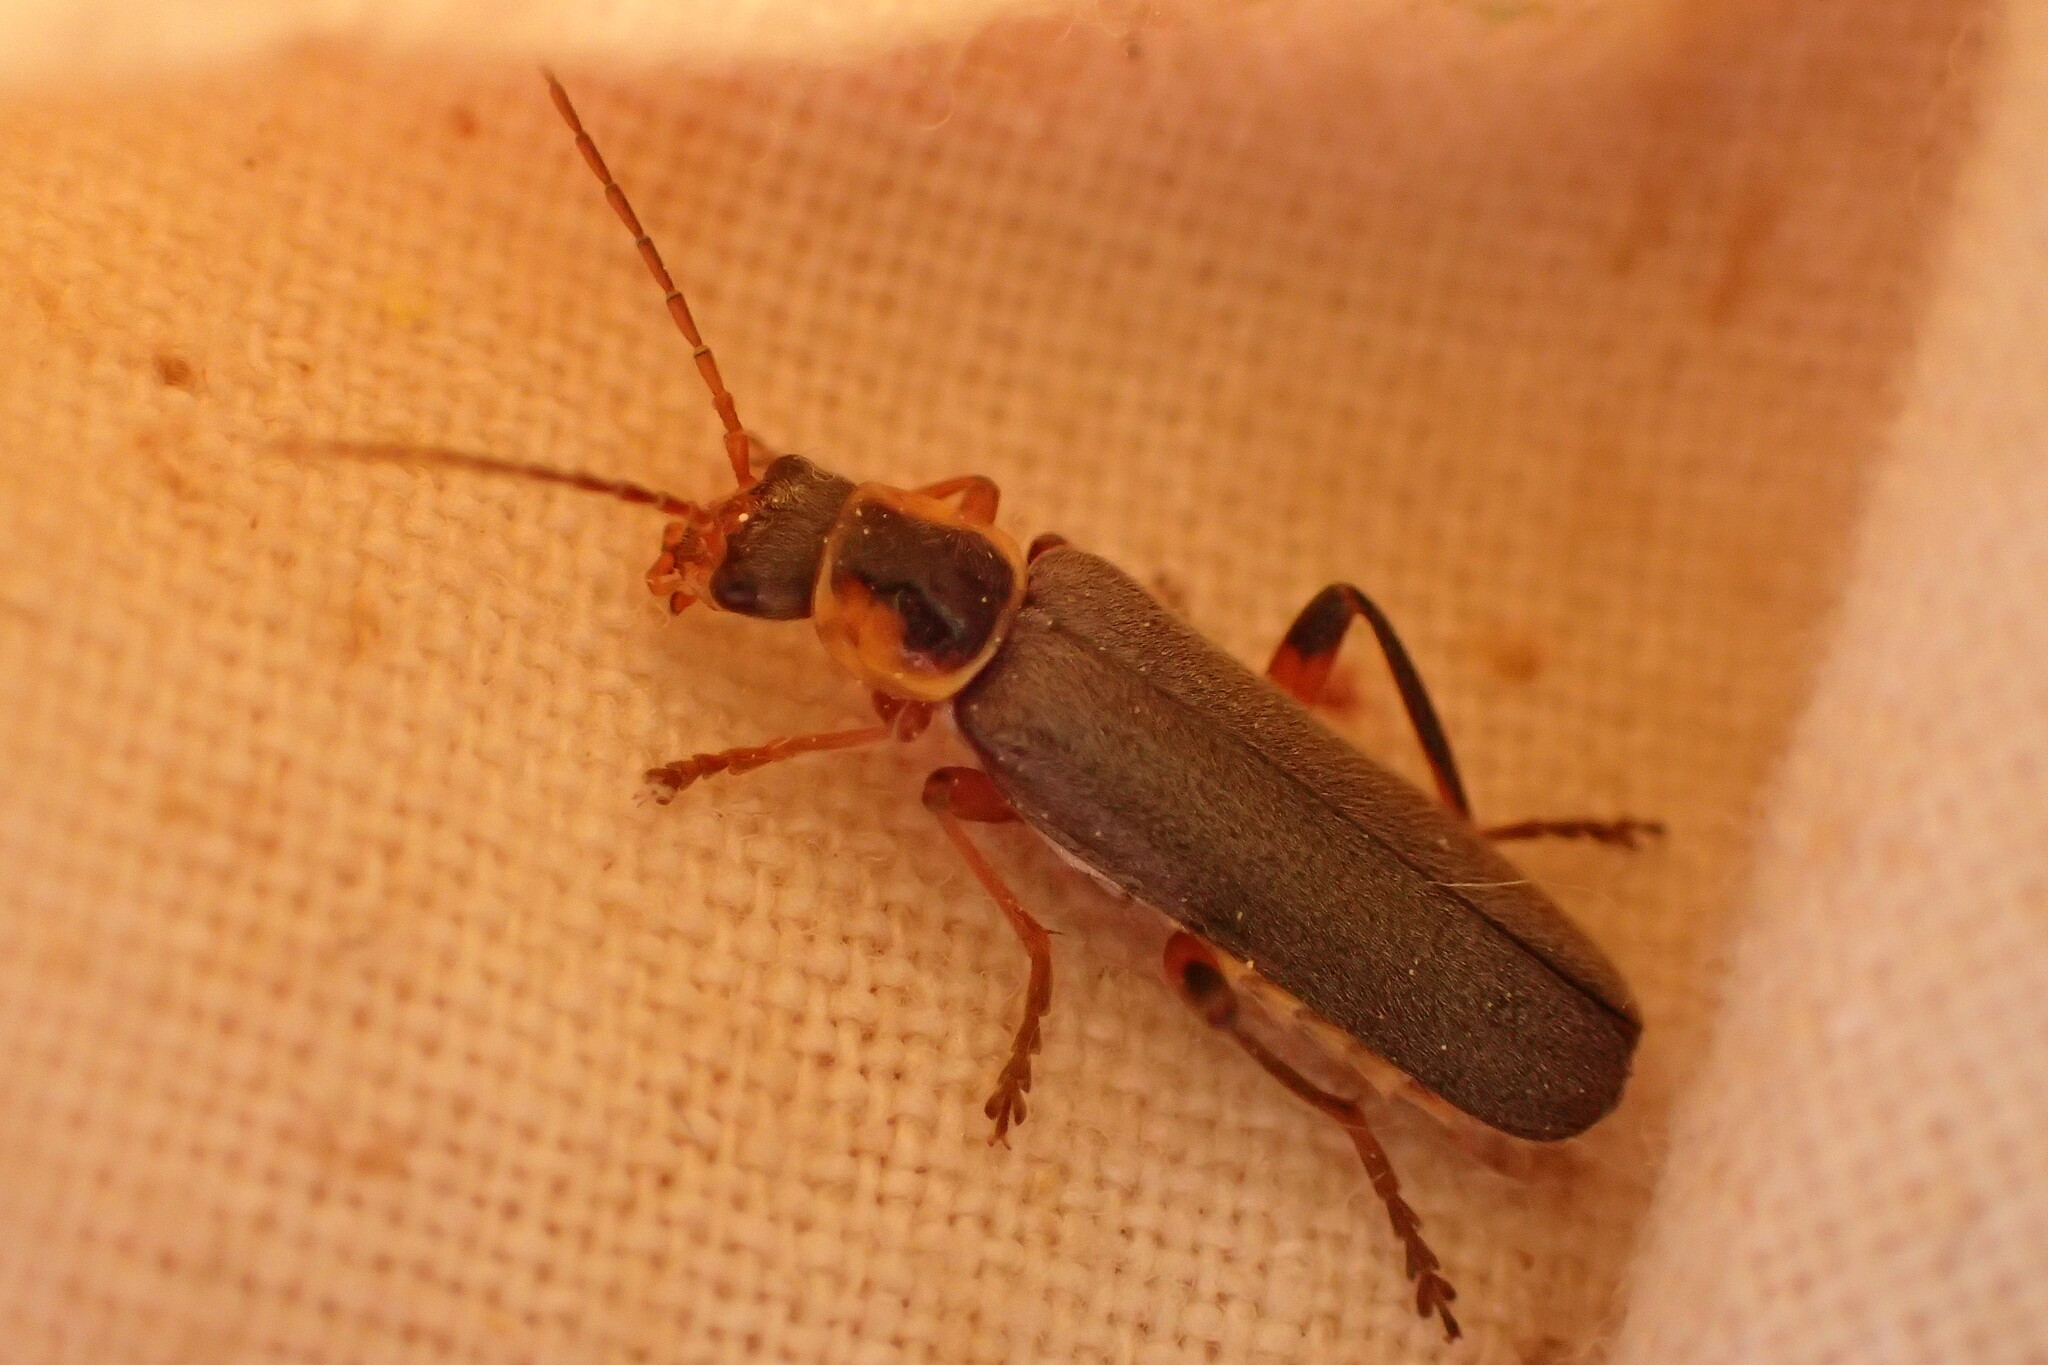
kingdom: Animalia
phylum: Arthropoda
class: Insecta
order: Coleoptera
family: Cantharidae
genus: Cantharis
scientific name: Cantharis nigricans
